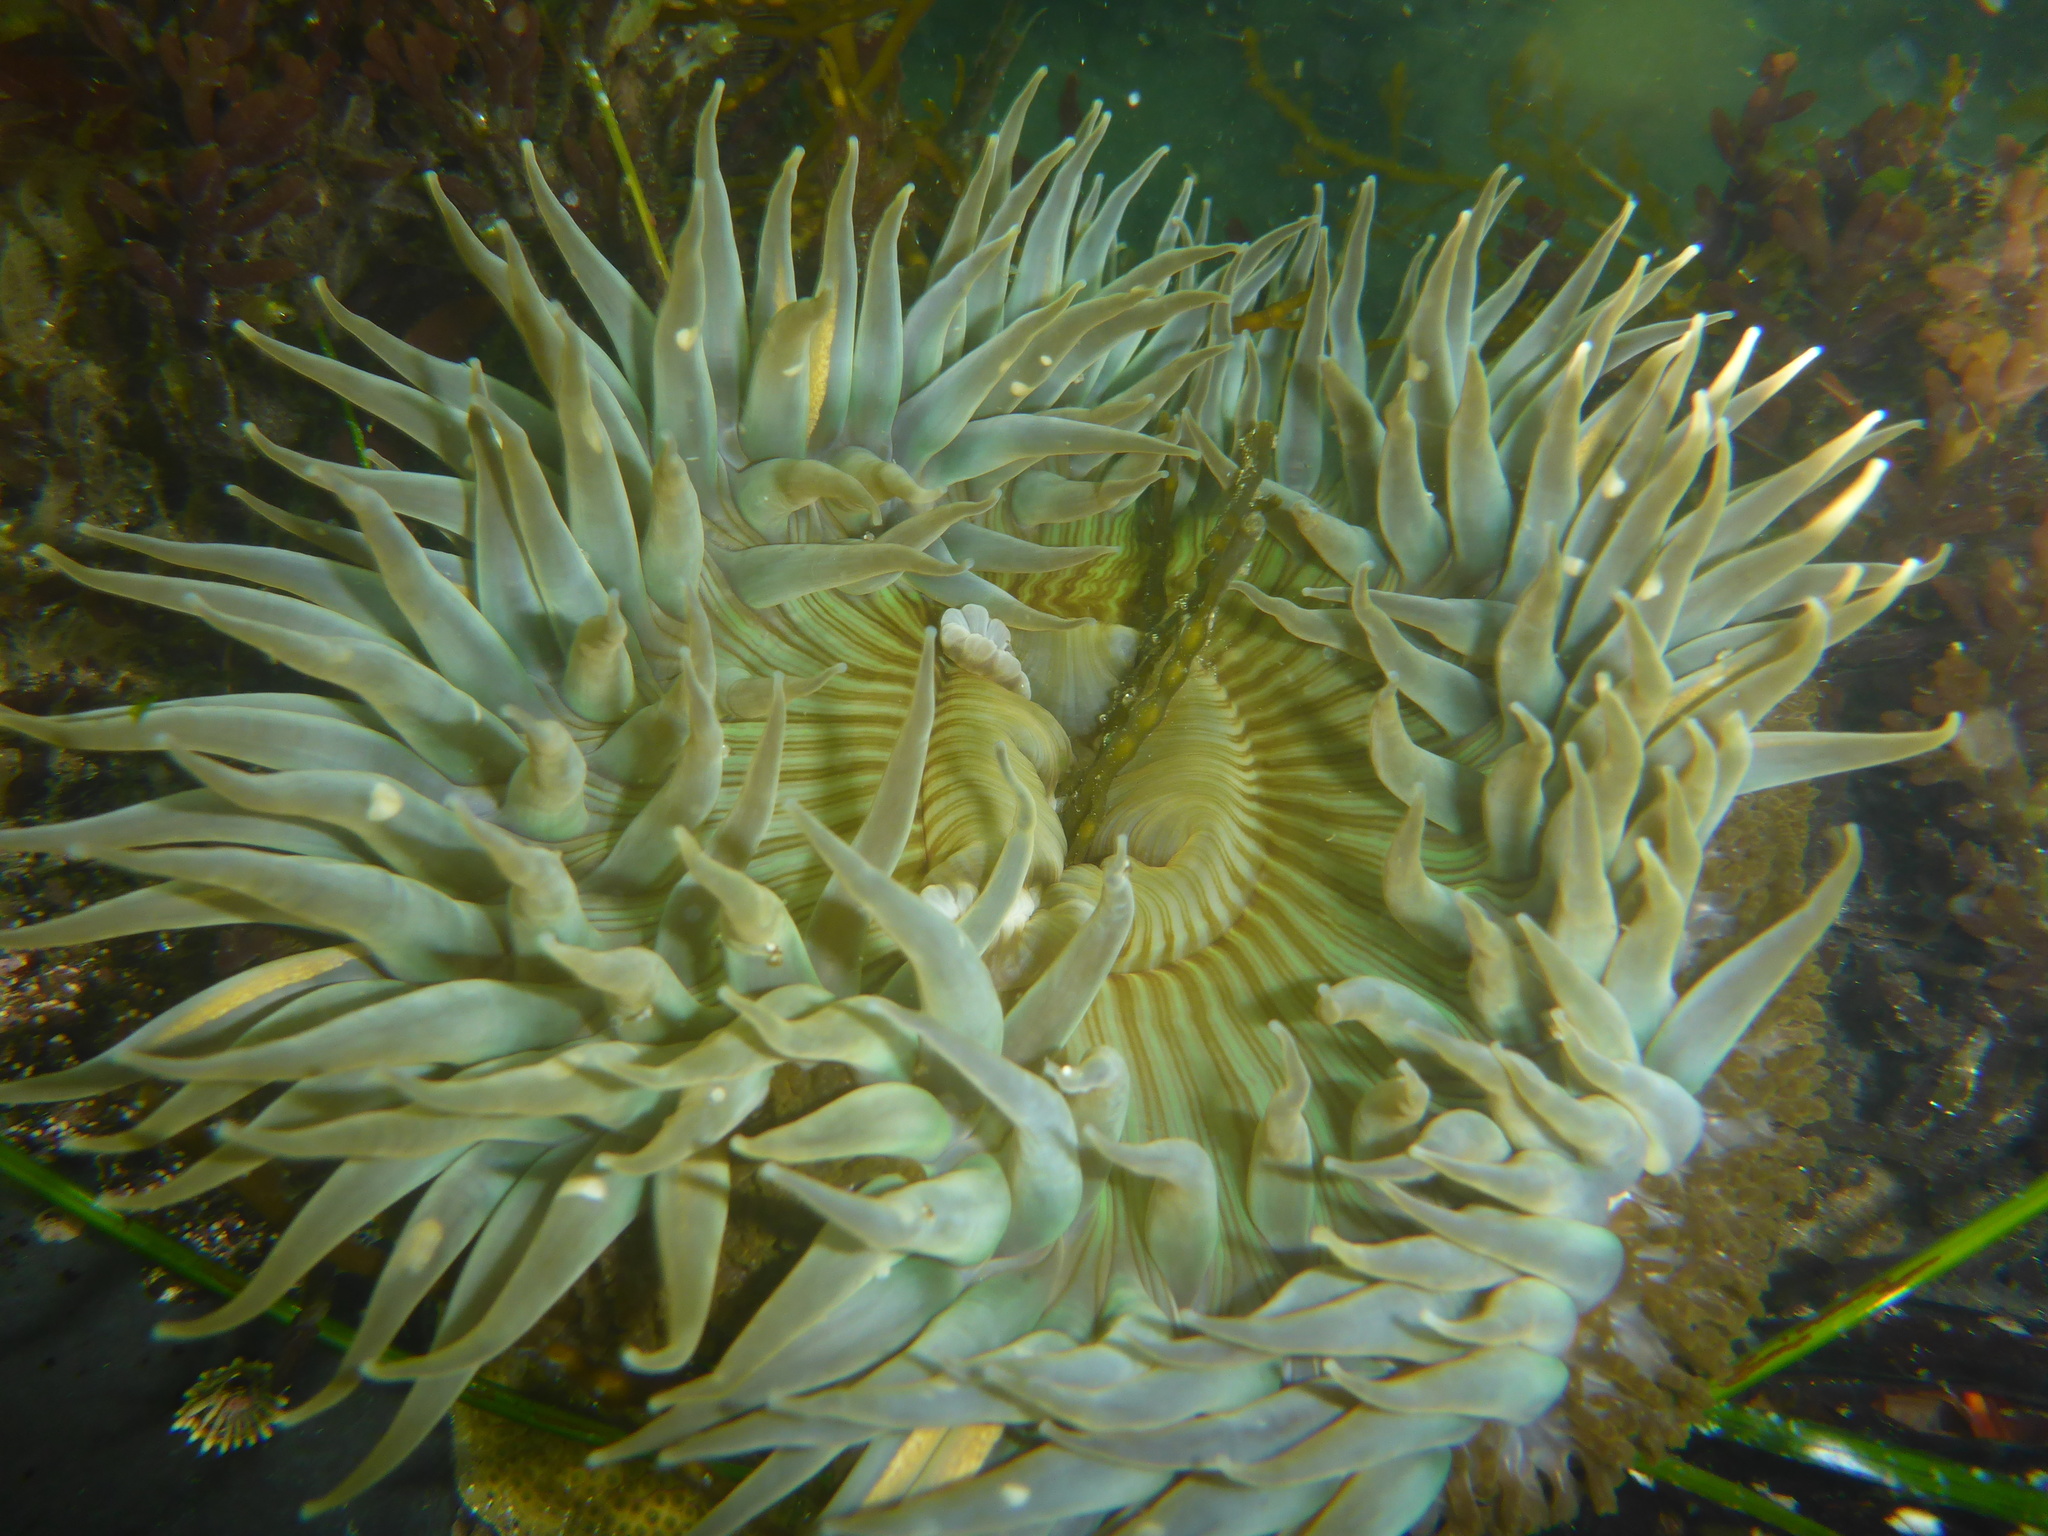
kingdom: Animalia
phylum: Cnidaria
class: Anthozoa
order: Actiniaria
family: Actiniidae
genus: Anthopleura
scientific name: Anthopleura sola
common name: Sun anemone
